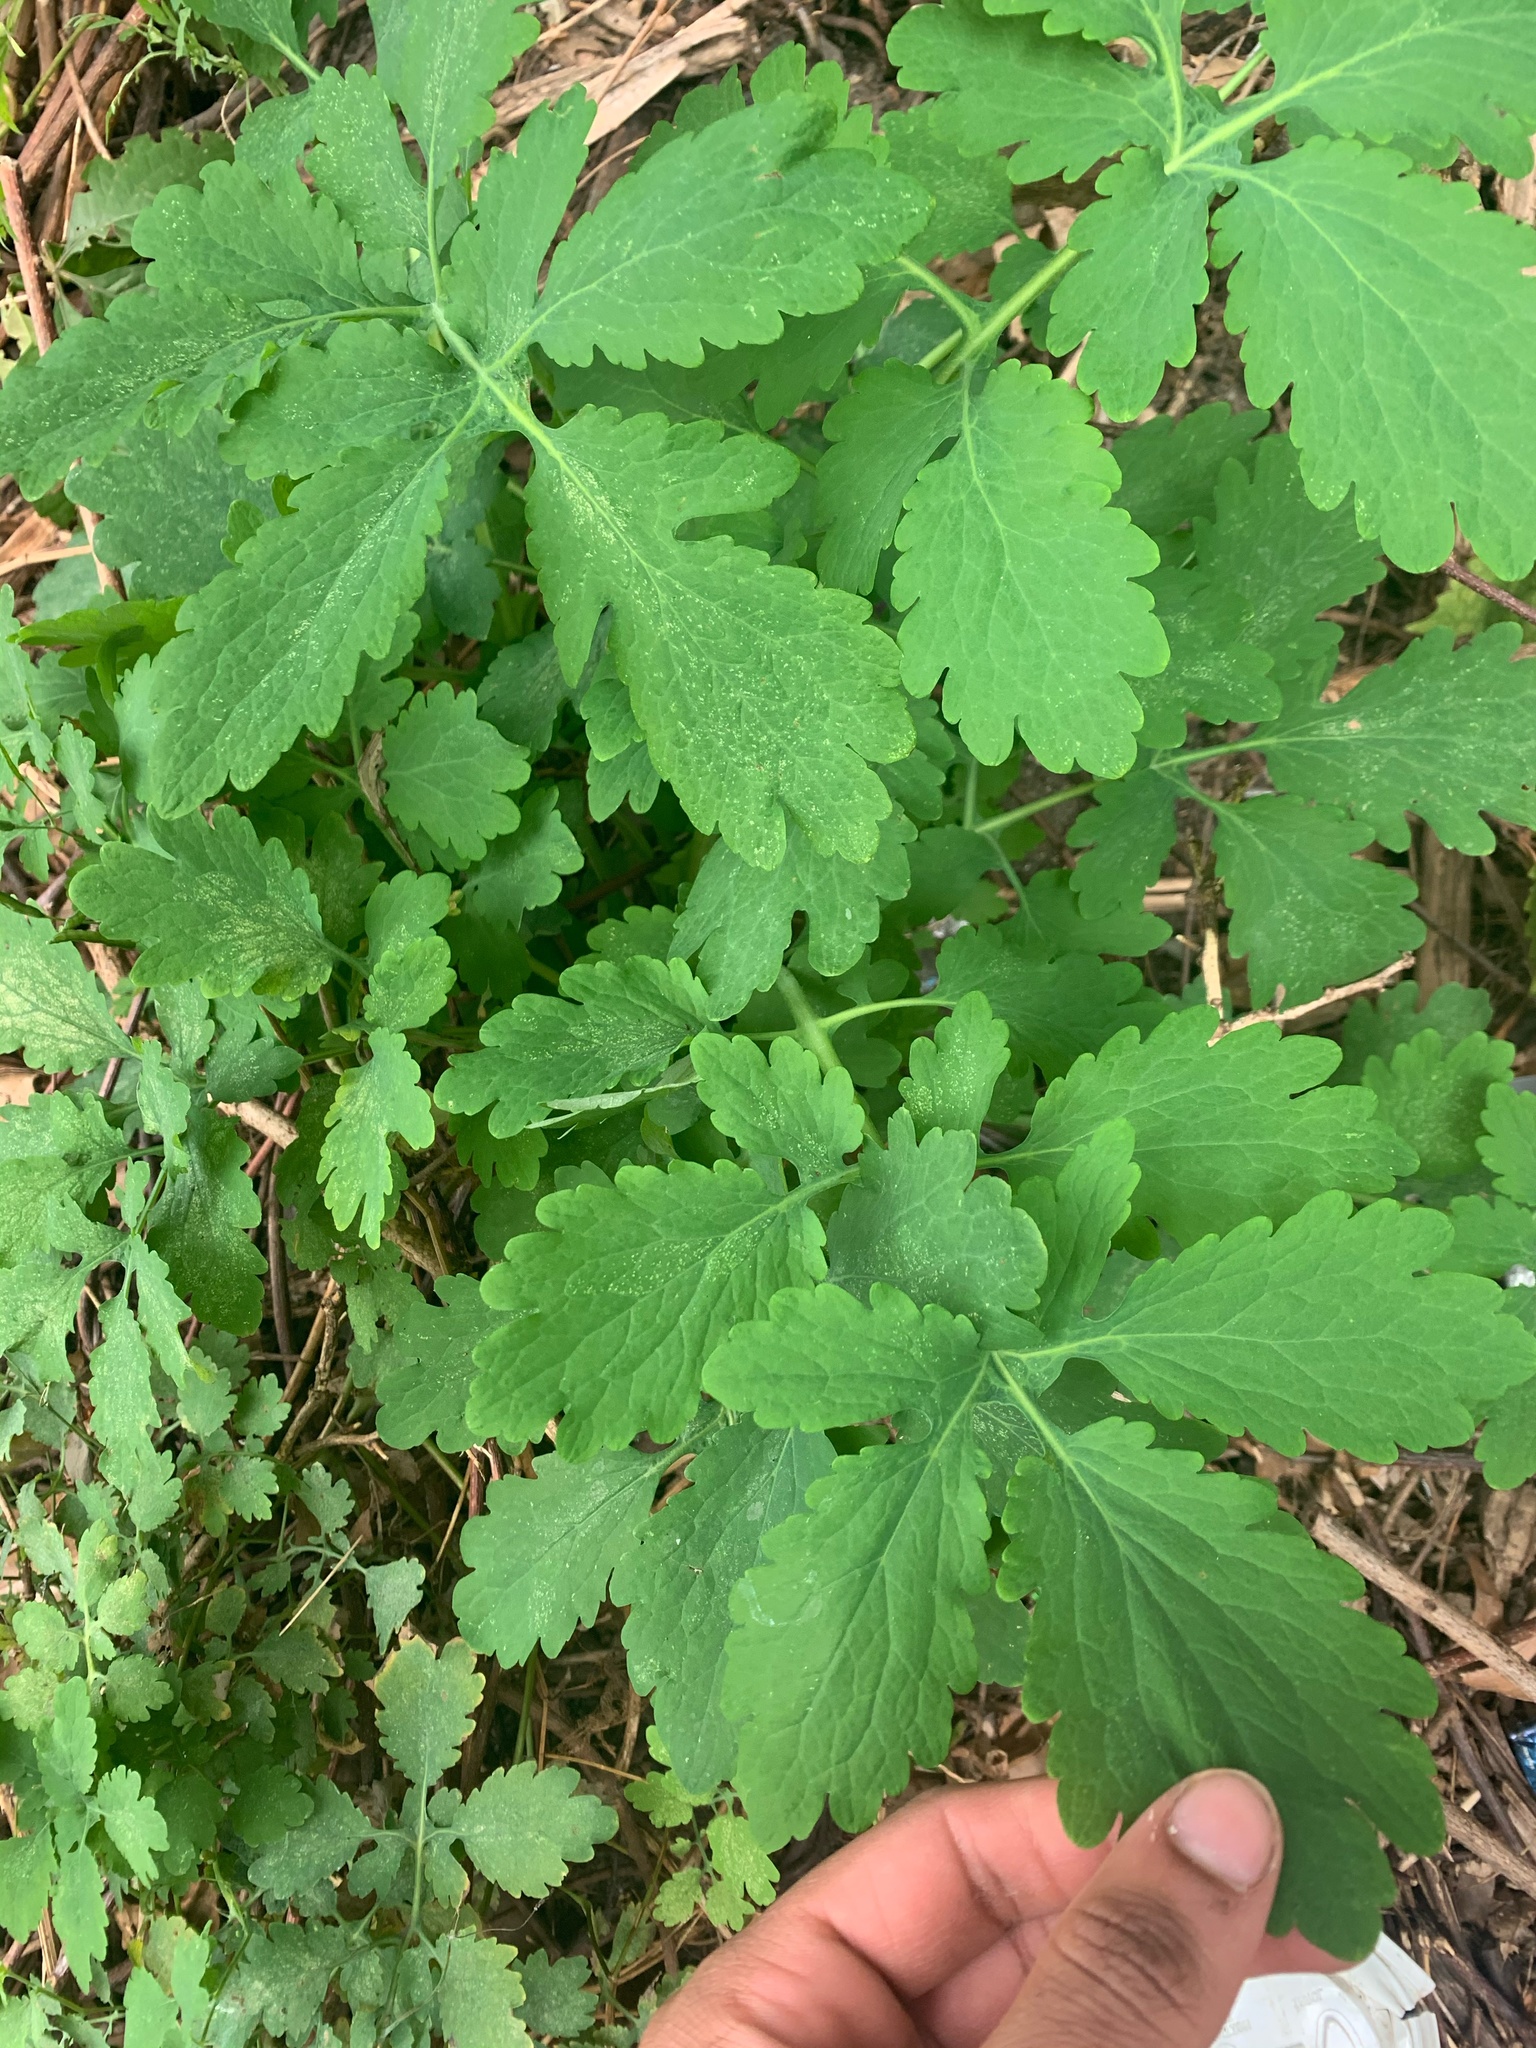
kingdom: Plantae
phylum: Tracheophyta
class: Magnoliopsida
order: Ranunculales
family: Papaveraceae
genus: Chelidonium
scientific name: Chelidonium majus
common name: Greater celandine
